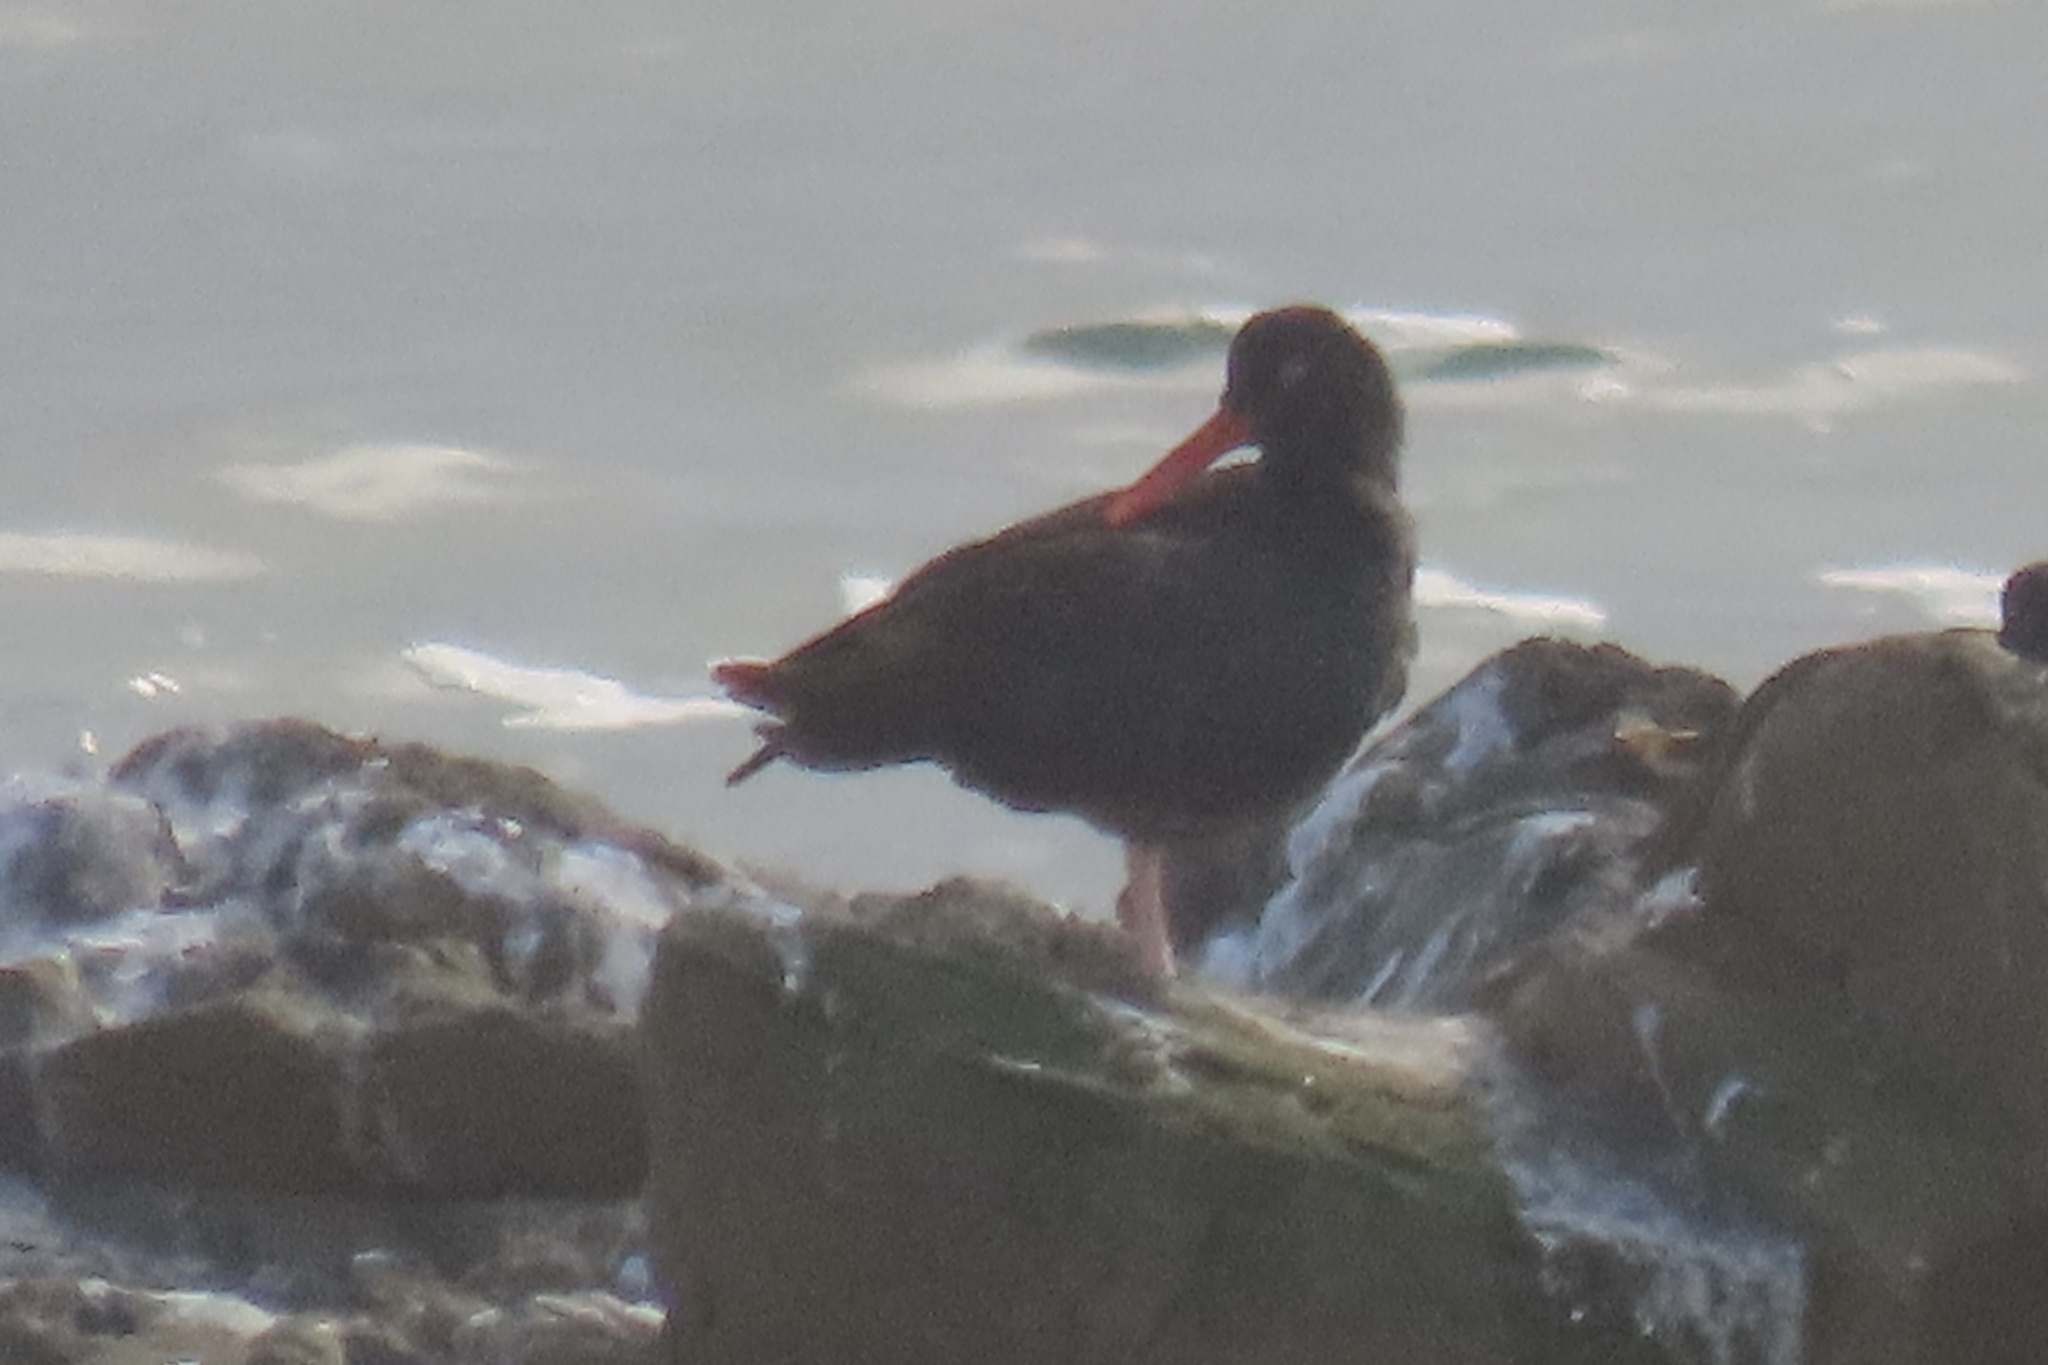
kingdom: Animalia
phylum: Chordata
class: Aves
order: Charadriiformes
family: Haematopodidae
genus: Haematopus
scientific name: Haematopus bachmani
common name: Black oystercatcher
